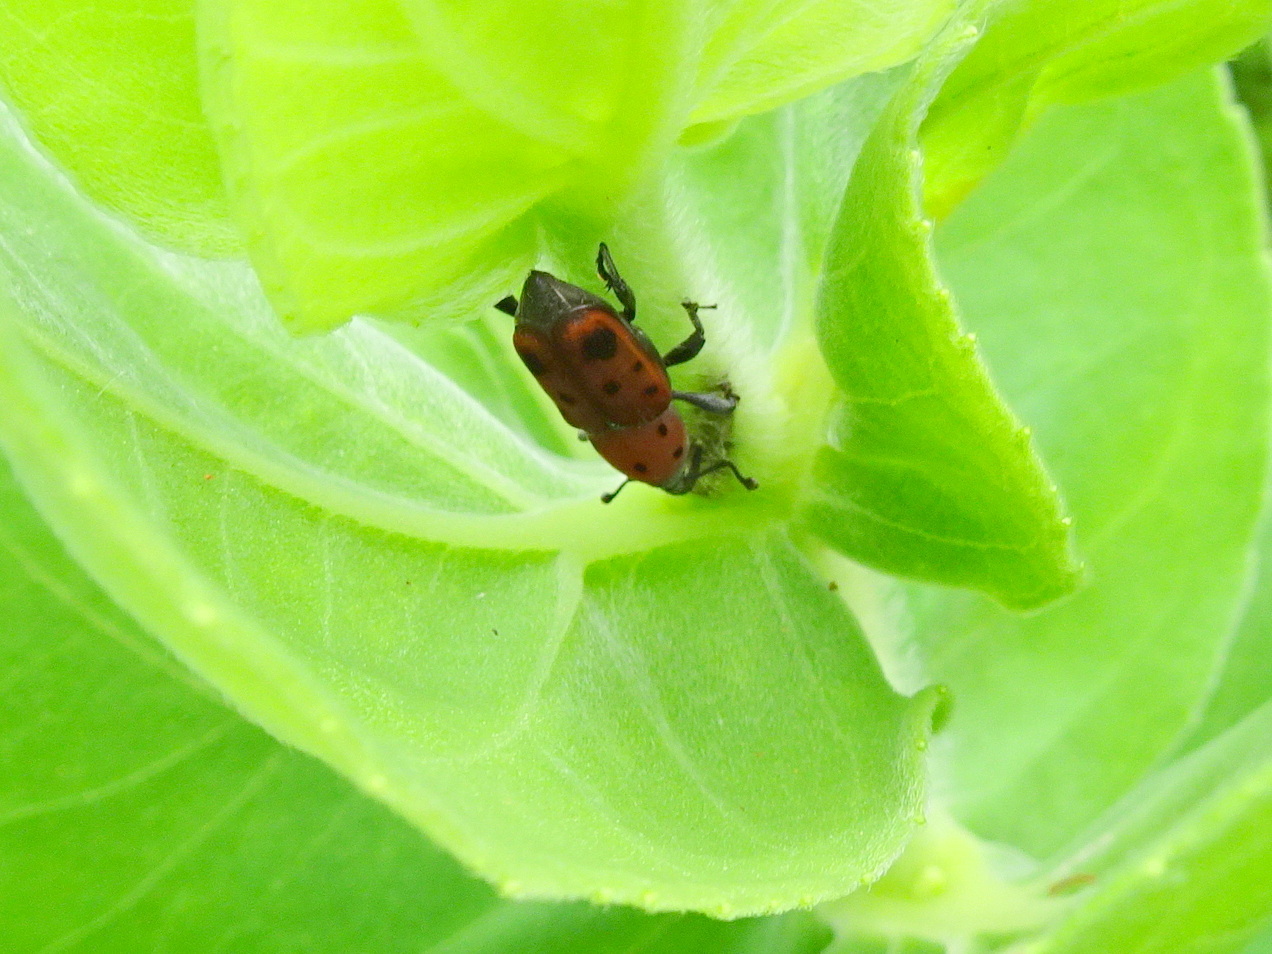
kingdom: Animalia
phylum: Arthropoda
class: Insecta
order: Coleoptera
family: Dryophthoridae
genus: Rhodobaenus
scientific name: Rhodobaenus tredecimpunctatus
